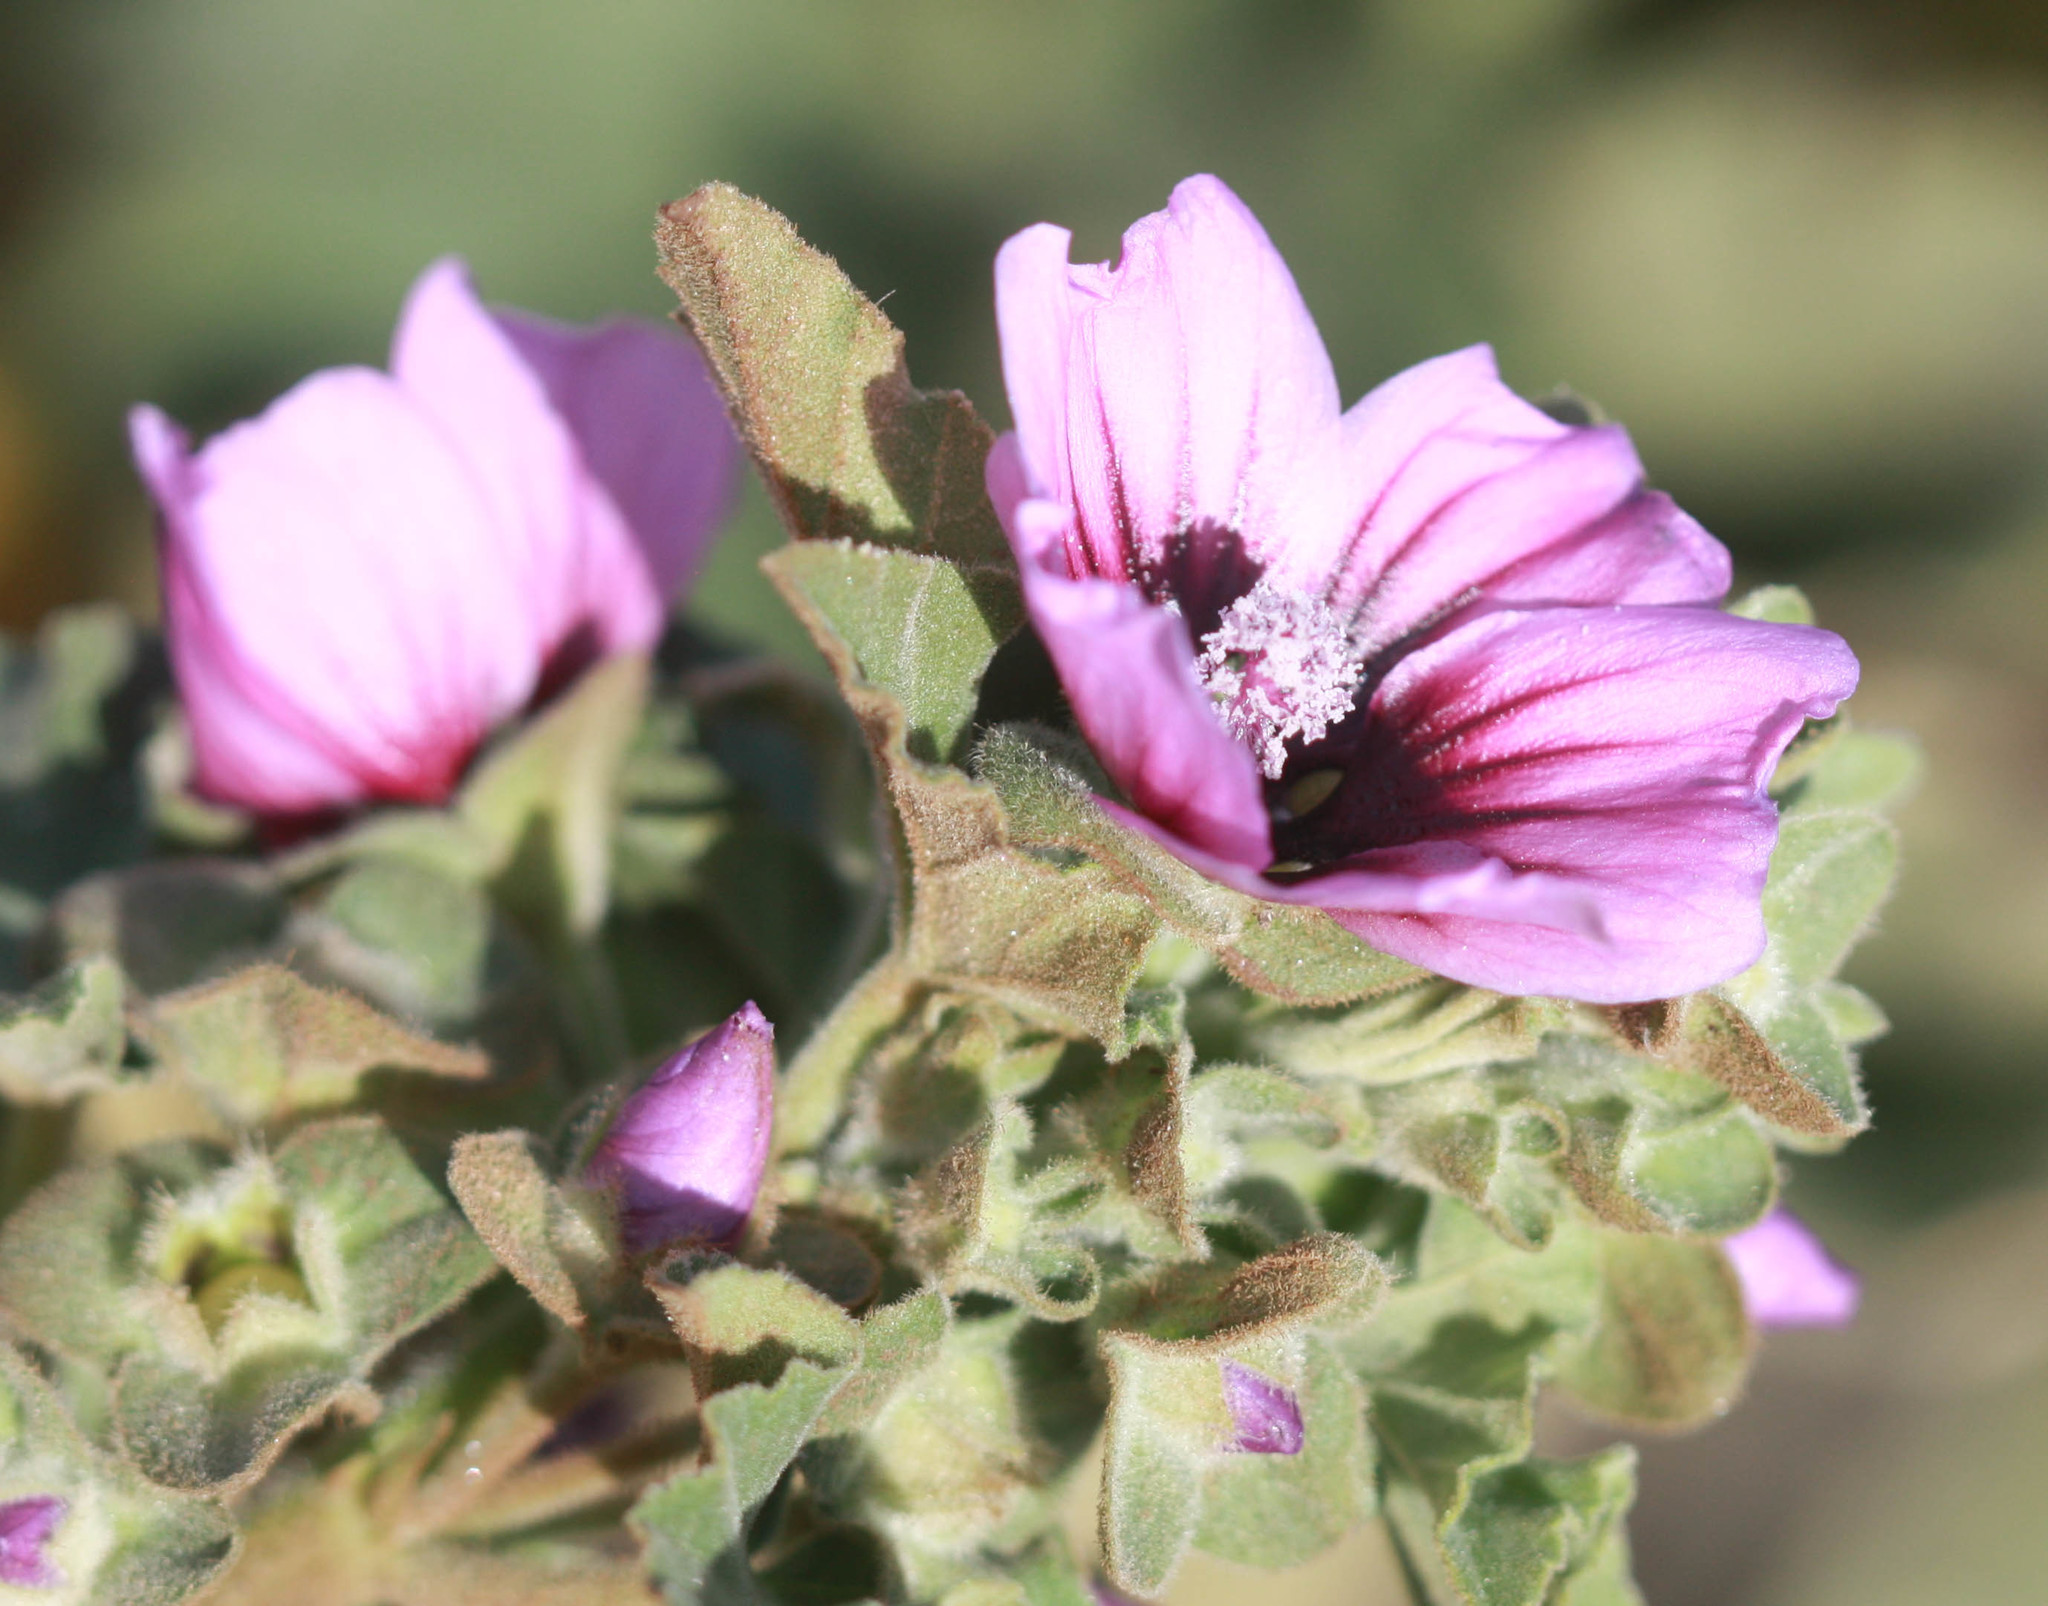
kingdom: Plantae
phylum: Tracheophyta
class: Magnoliopsida
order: Malvales
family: Malvaceae
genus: Malva
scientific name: Malva arborea
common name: Tree mallow
